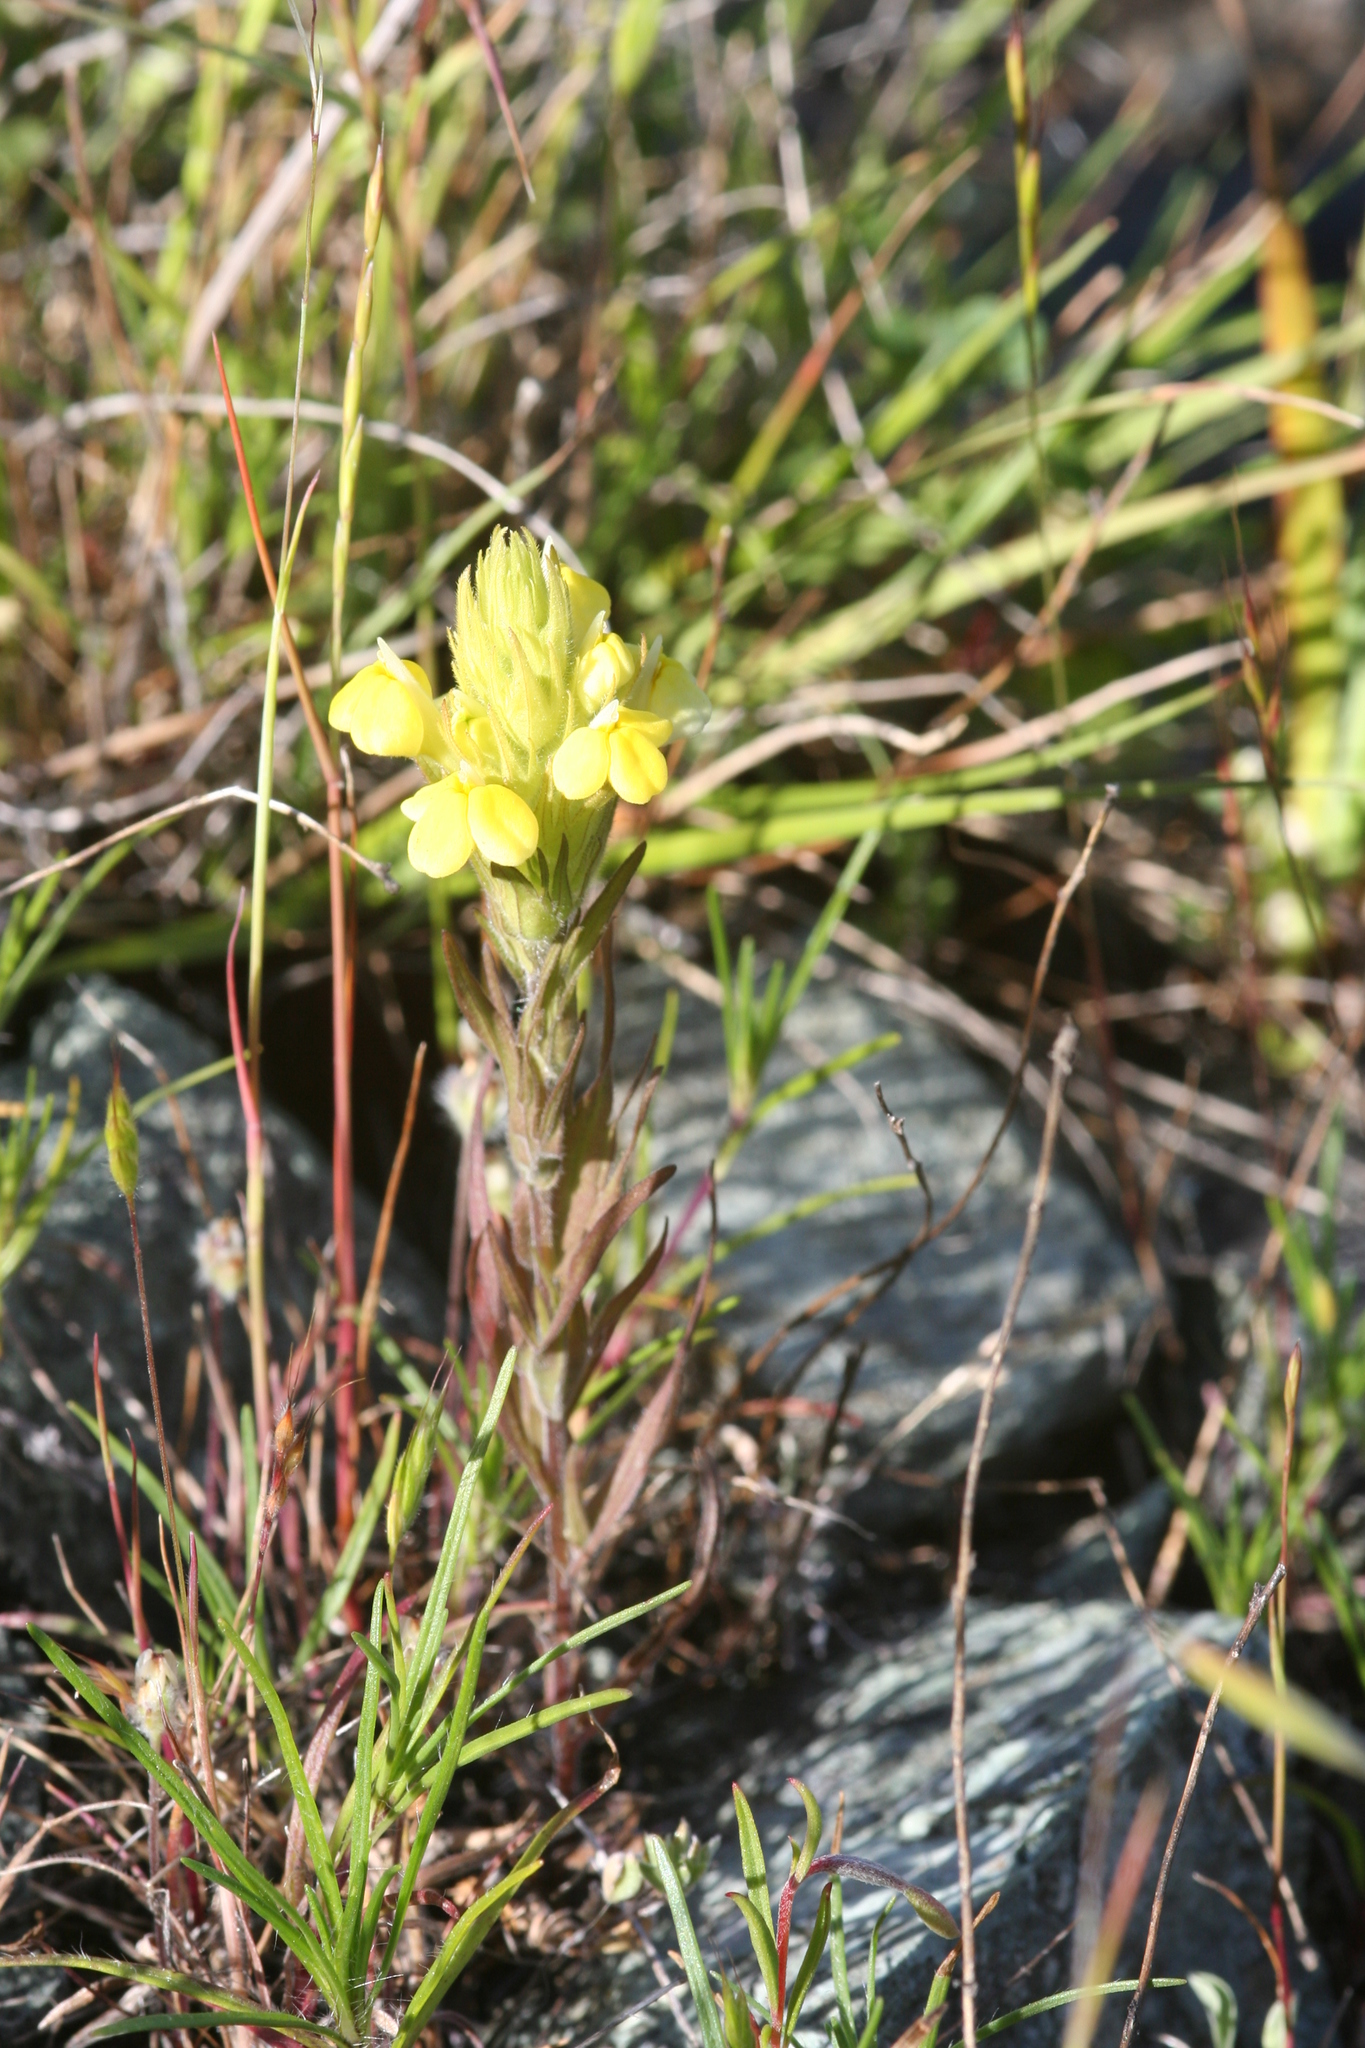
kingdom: Plantae
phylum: Tracheophyta
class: Magnoliopsida
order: Lamiales
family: Orobanchaceae
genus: Castilleja
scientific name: Castilleja rubicundula
